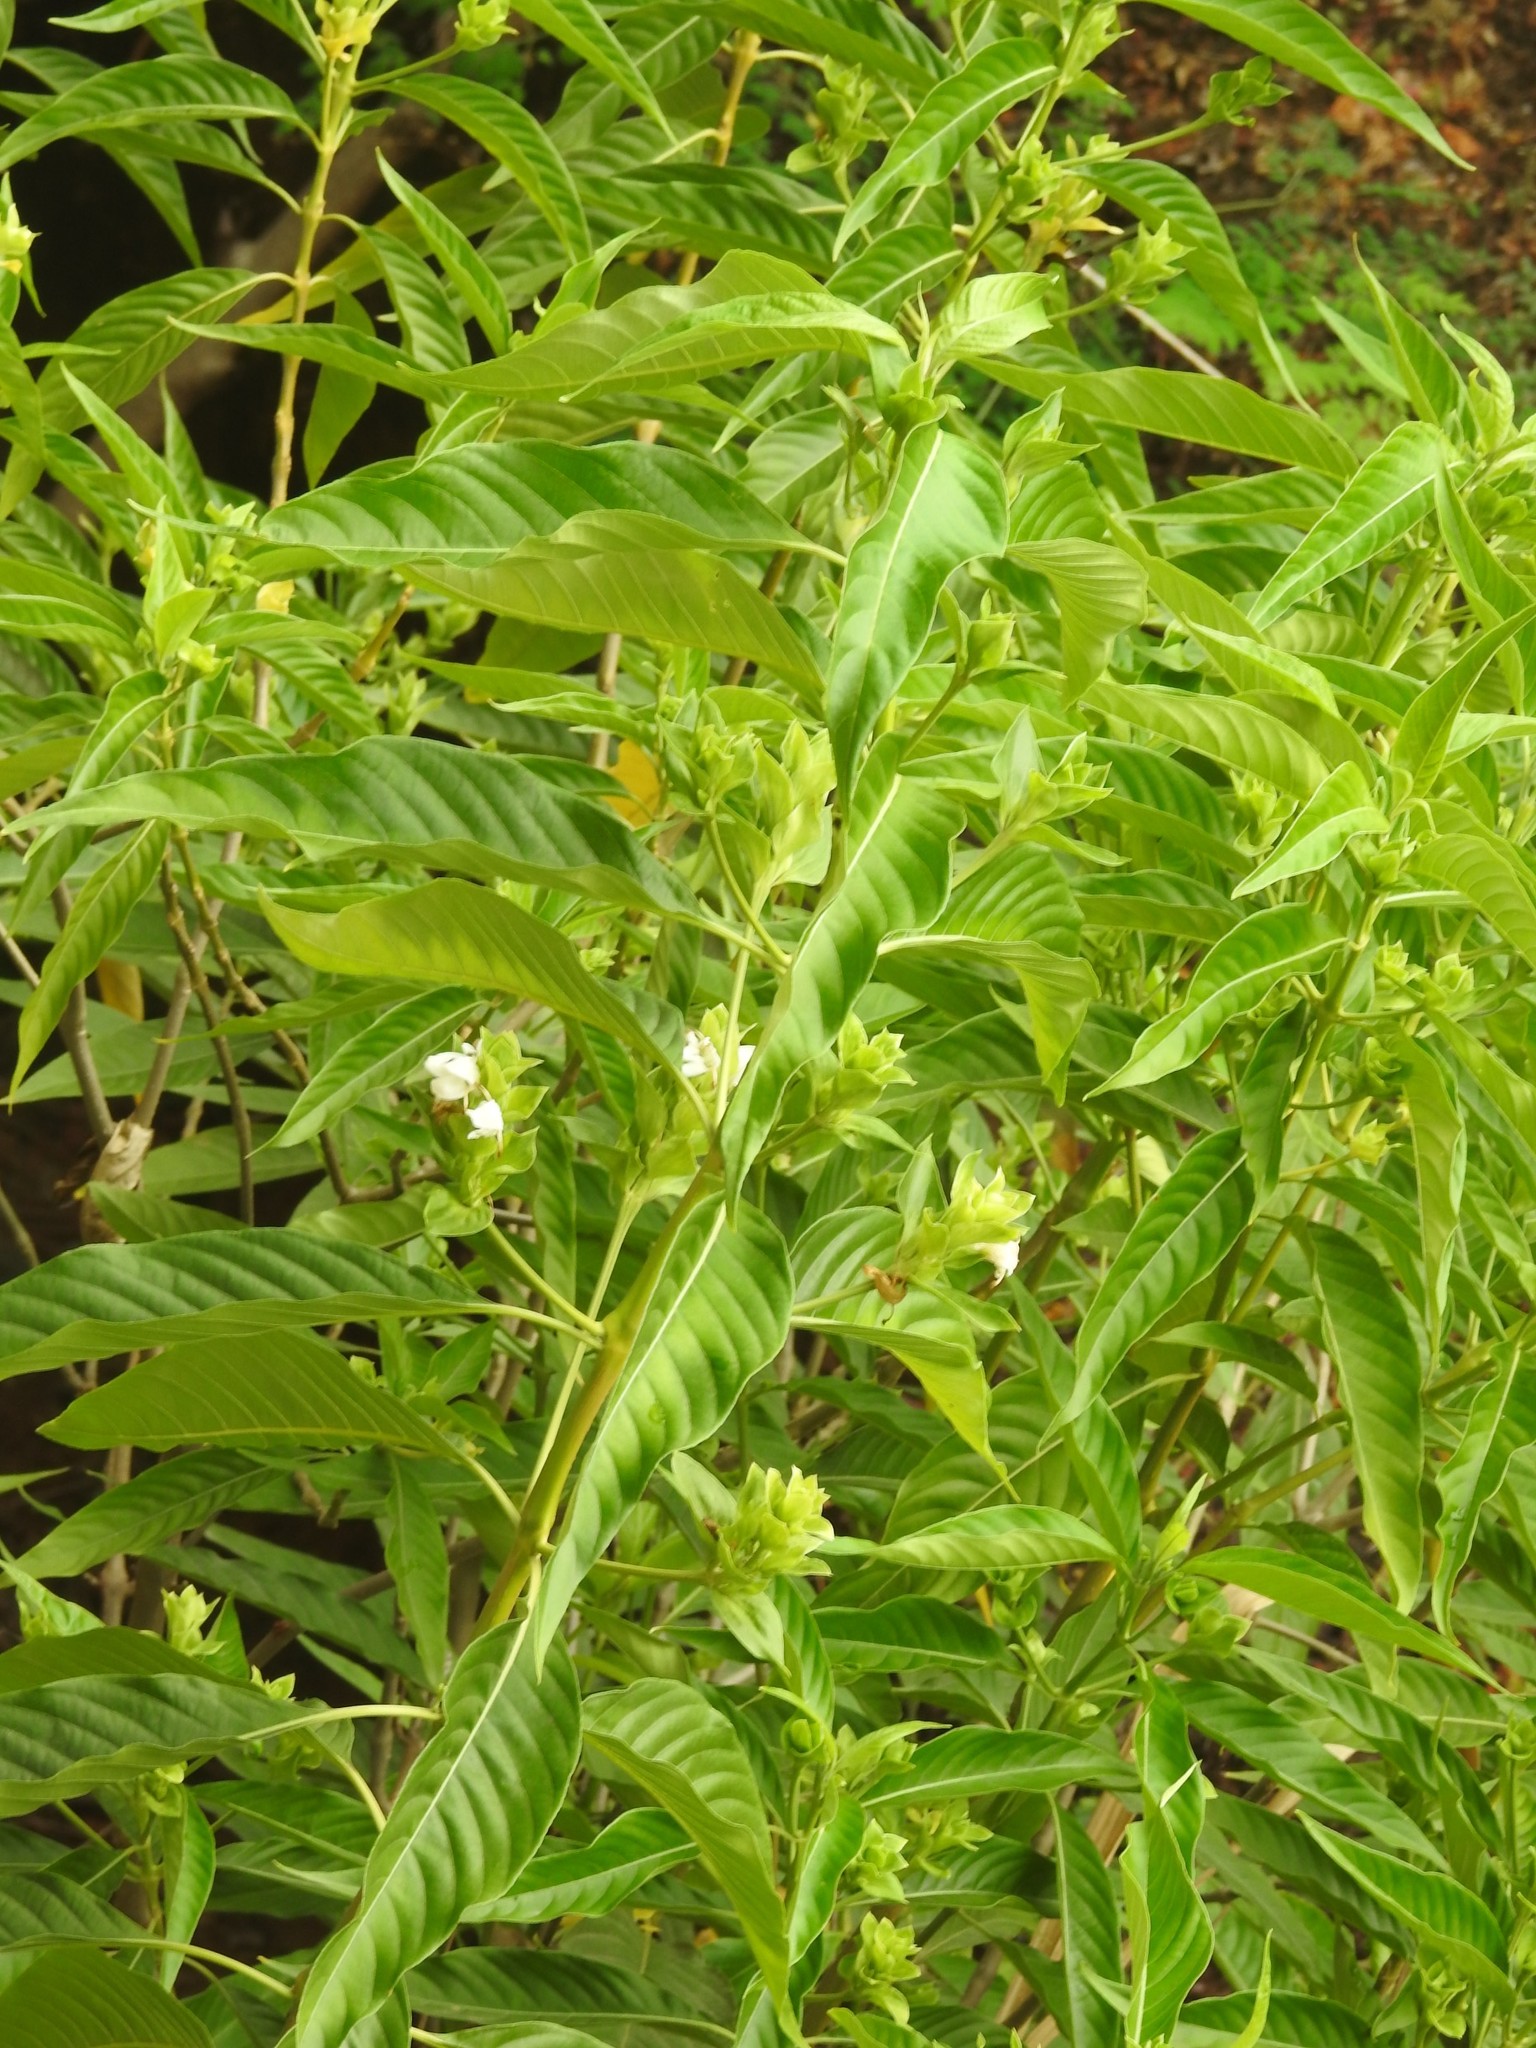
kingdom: Plantae
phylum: Tracheophyta
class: Magnoliopsida
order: Lamiales
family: Acanthaceae
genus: Justicia
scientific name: Justicia adhatoda
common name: Malabar nut
